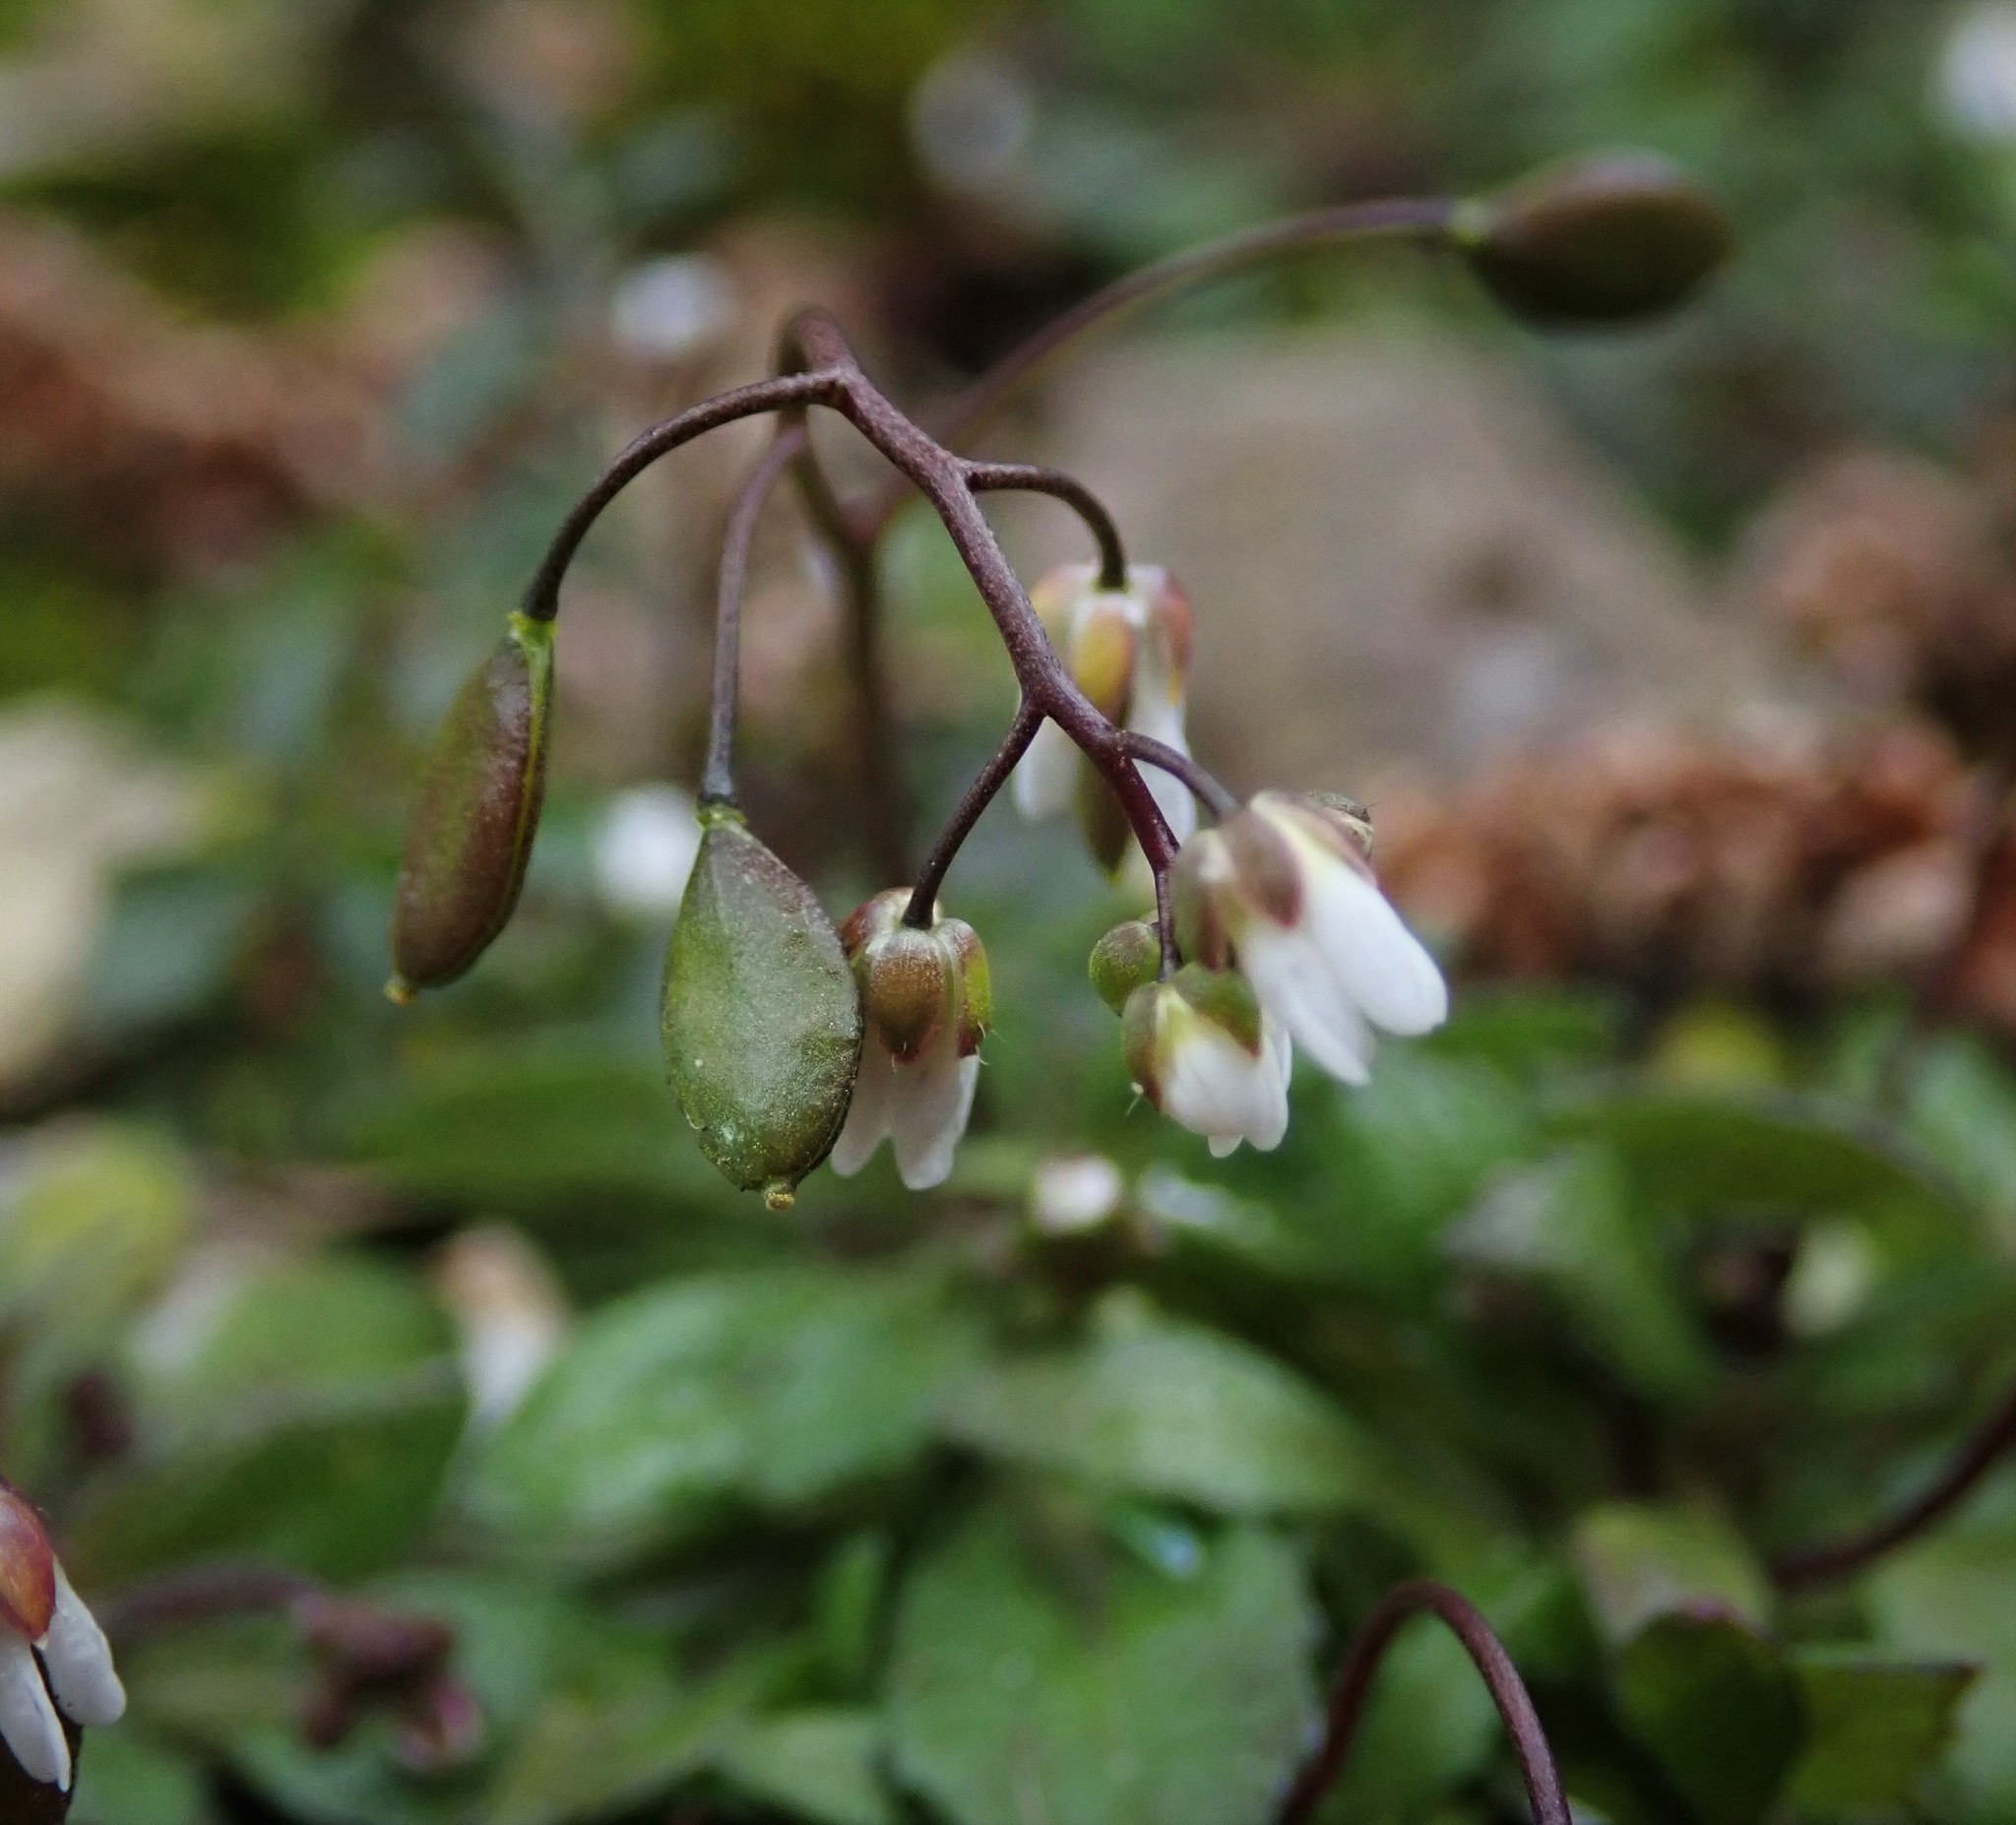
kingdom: Plantae
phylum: Tracheophyta
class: Magnoliopsida
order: Brassicales
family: Brassicaceae
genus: Draba
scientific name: Draba verna
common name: Spring draba
